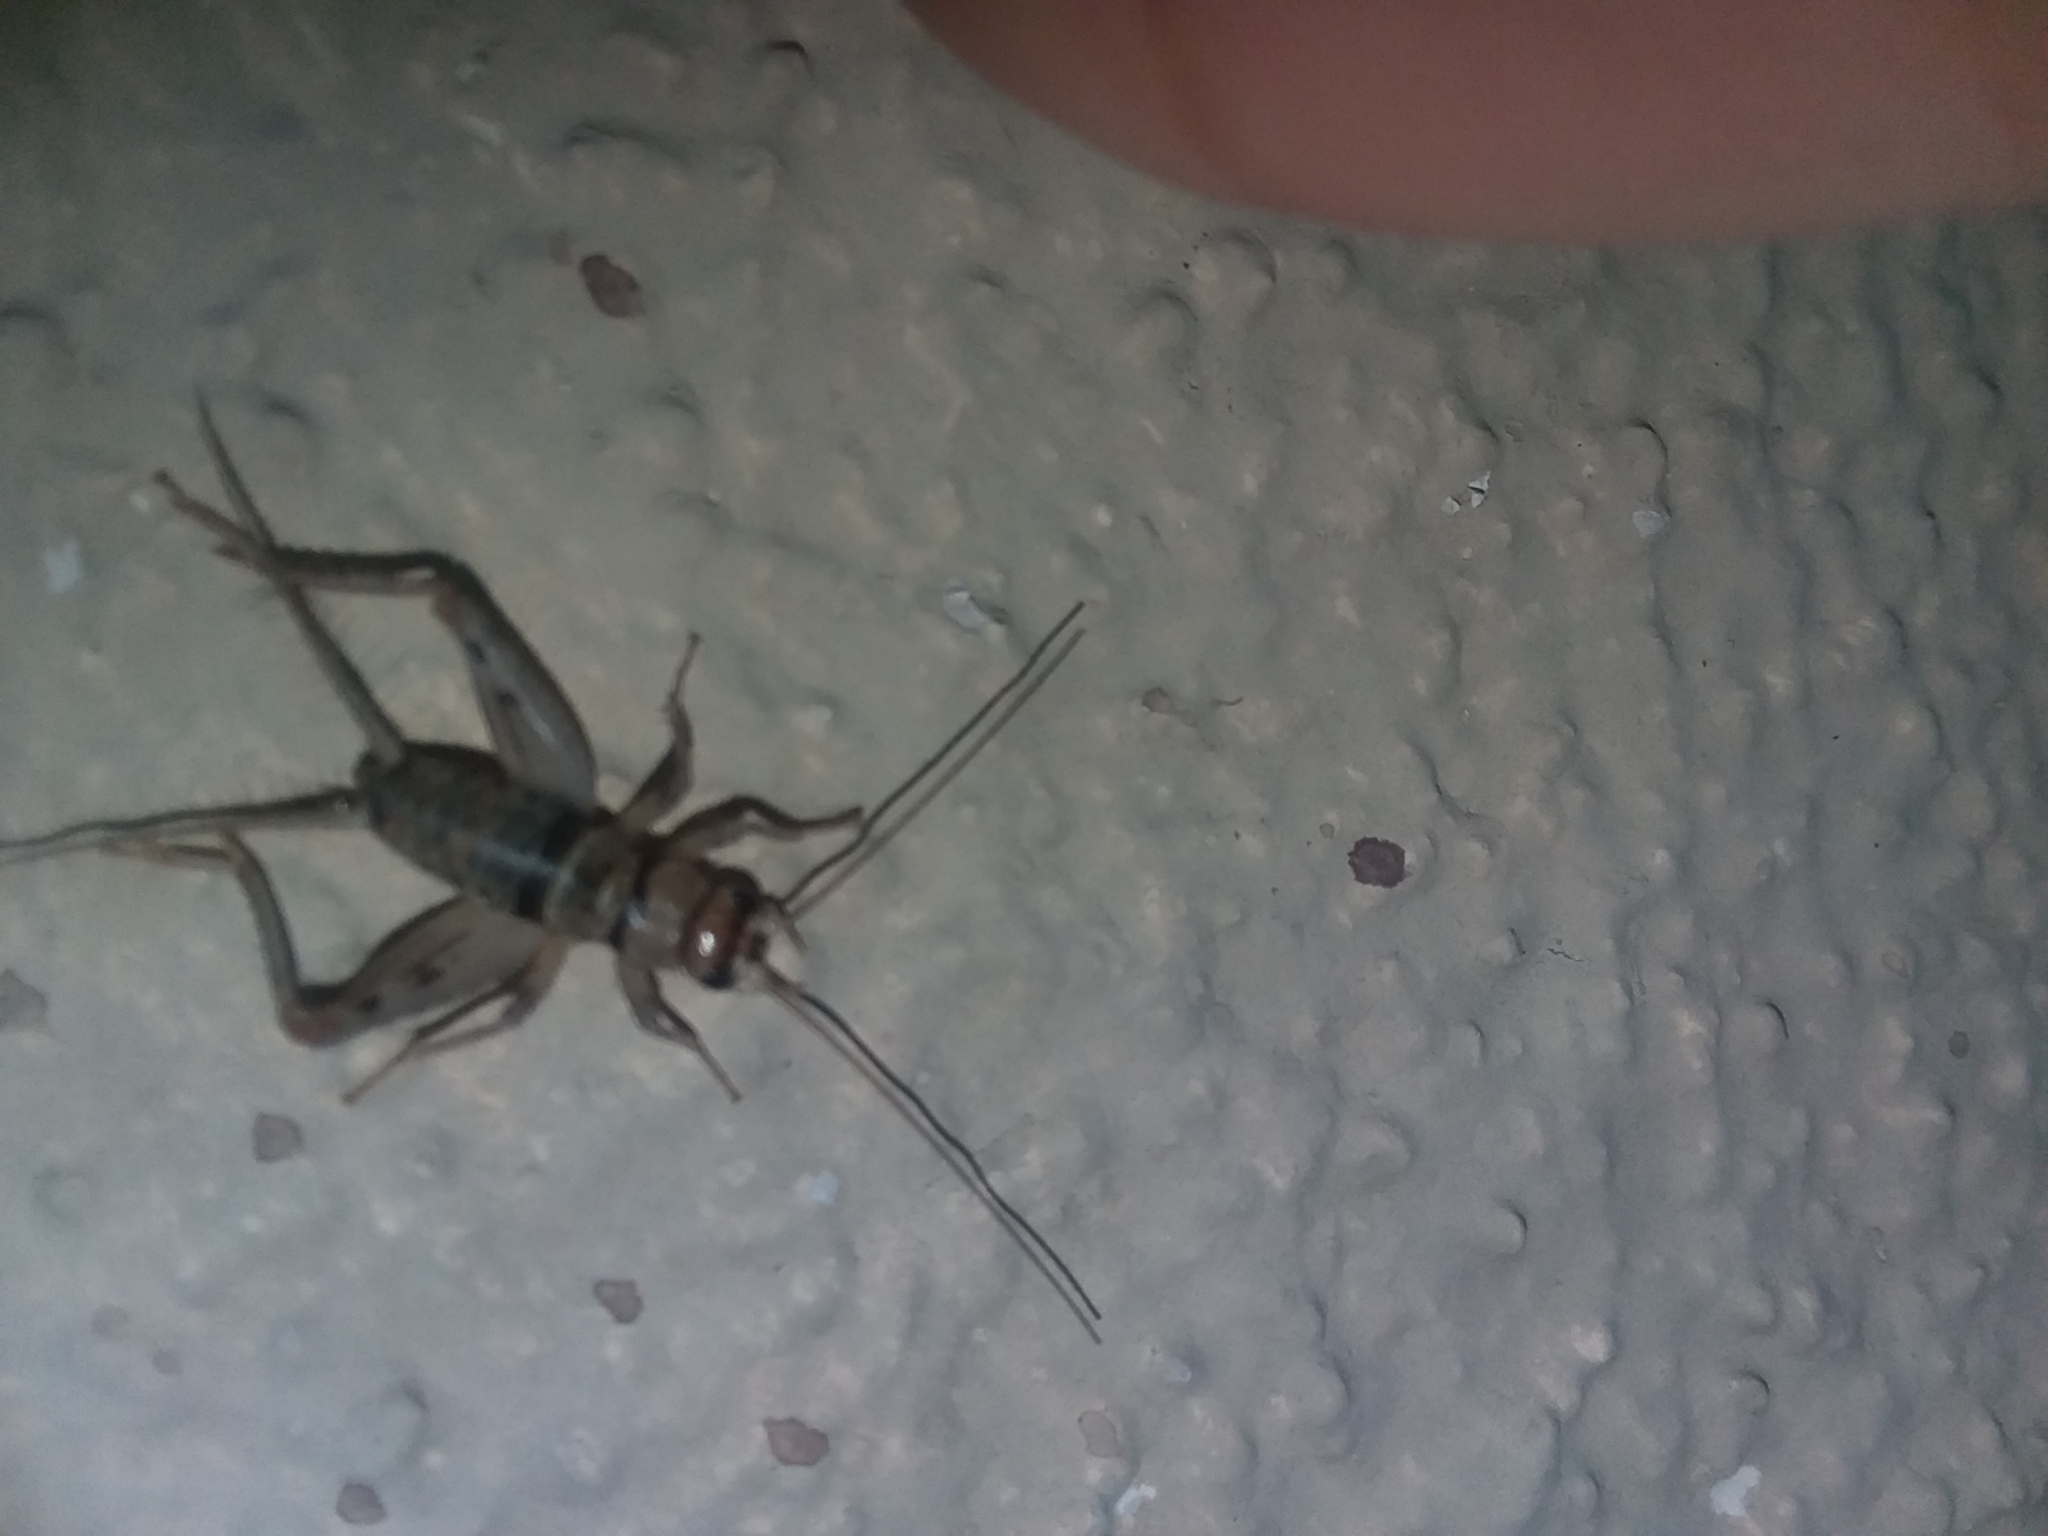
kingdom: Animalia
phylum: Arthropoda
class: Insecta
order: Orthoptera
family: Gryllidae
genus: Gryllodes
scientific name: Gryllodes sigillatus
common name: Tropical house cricket
